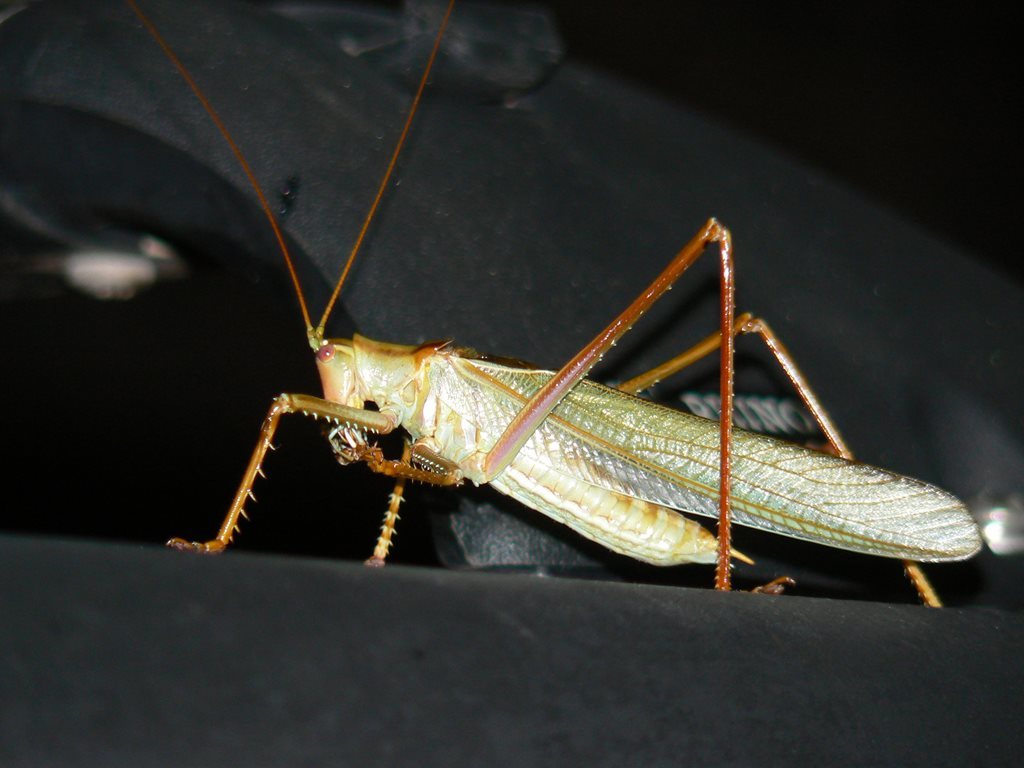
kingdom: Animalia
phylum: Arthropoda
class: Insecta
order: Orthoptera
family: Tettigoniidae
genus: Yullandria
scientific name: Yullandria lawagimana
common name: Glistening yullandria
